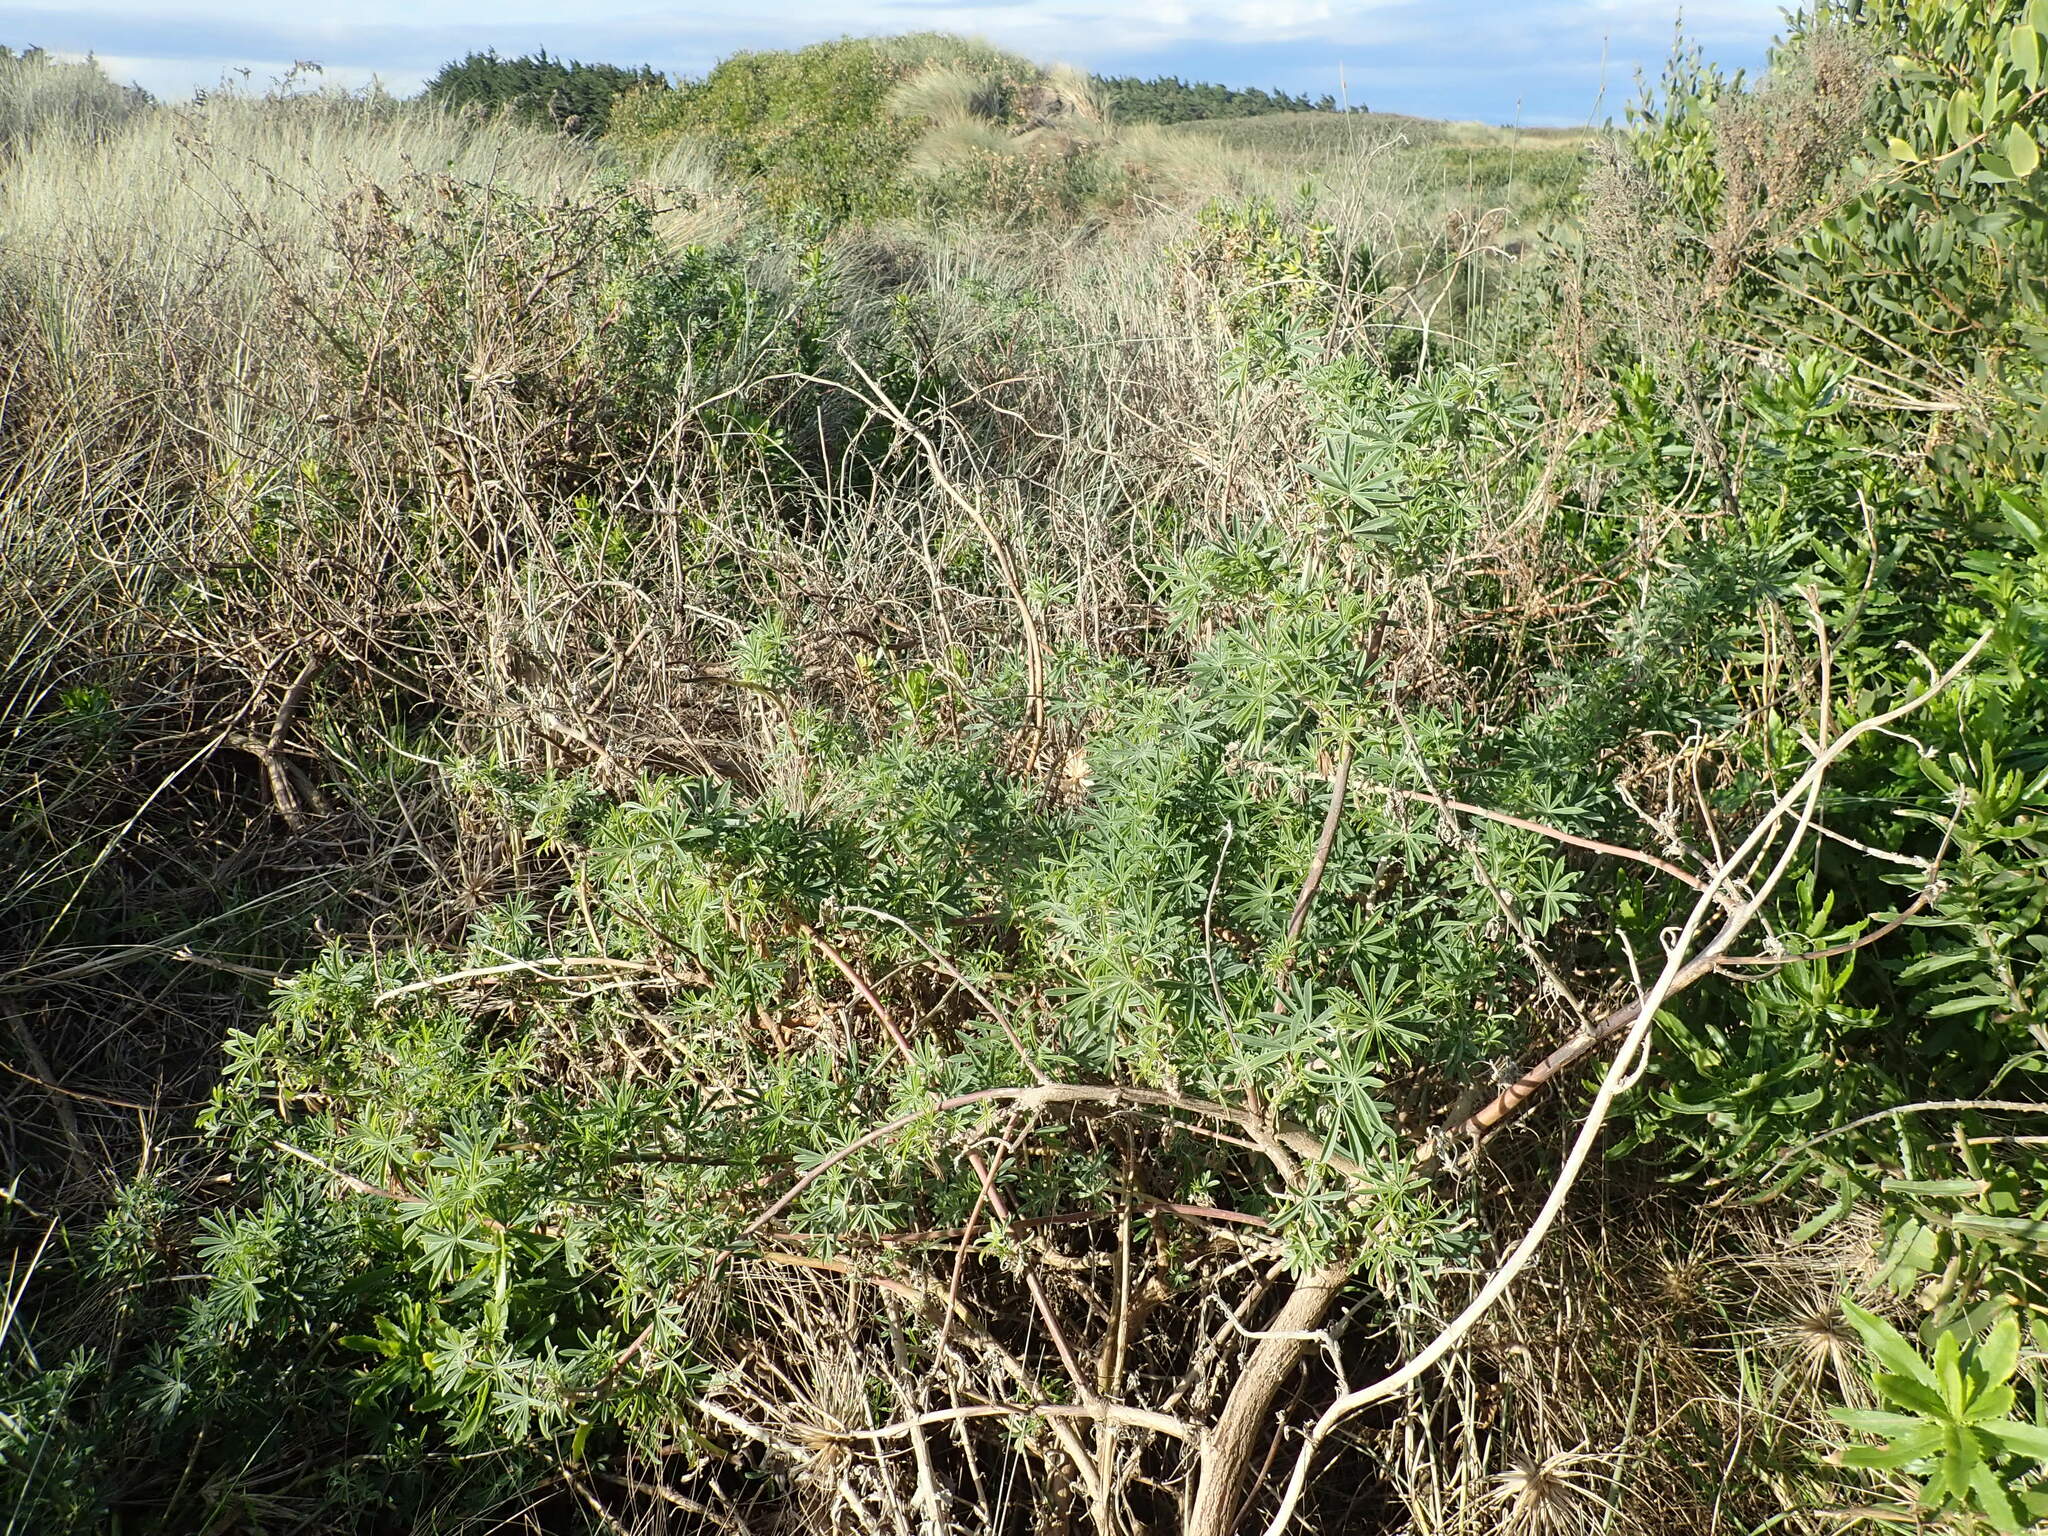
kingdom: Plantae
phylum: Tracheophyta
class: Magnoliopsida
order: Fabales
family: Fabaceae
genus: Lupinus
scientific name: Lupinus arboreus
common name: Yellow bush lupine
